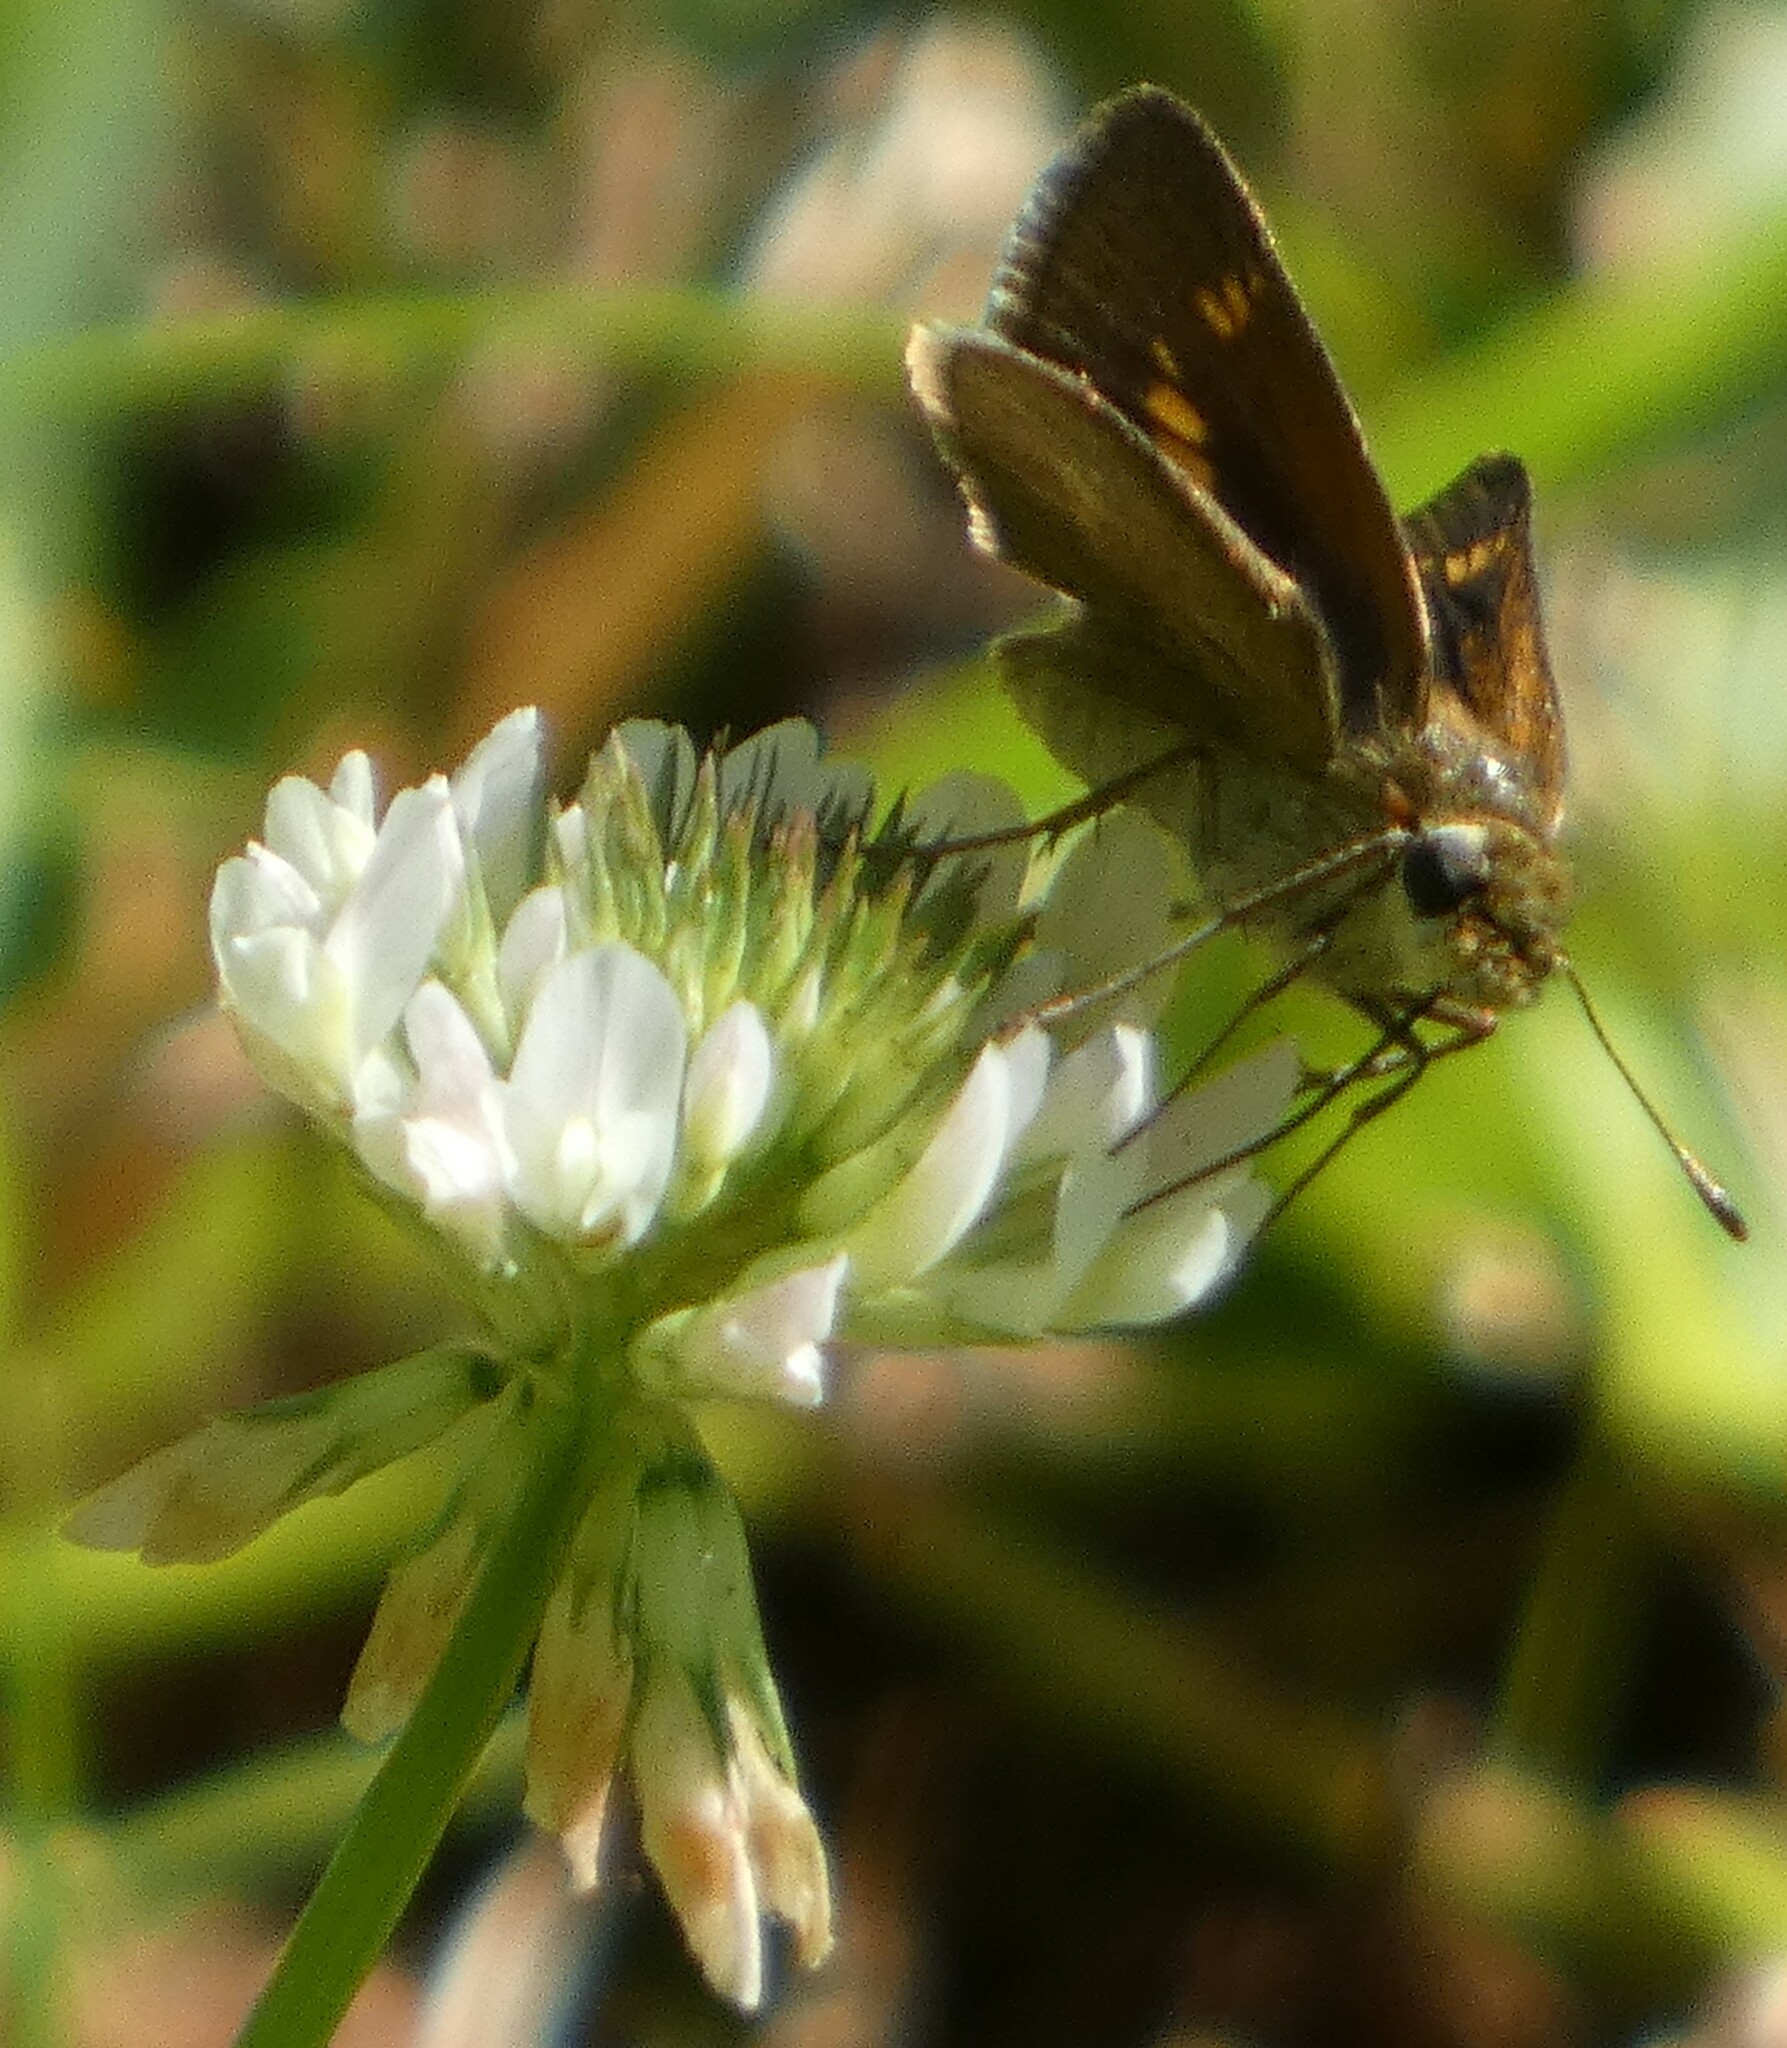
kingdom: Animalia
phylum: Arthropoda
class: Insecta
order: Lepidoptera
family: Hesperiidae
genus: Polites
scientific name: Polites otho
